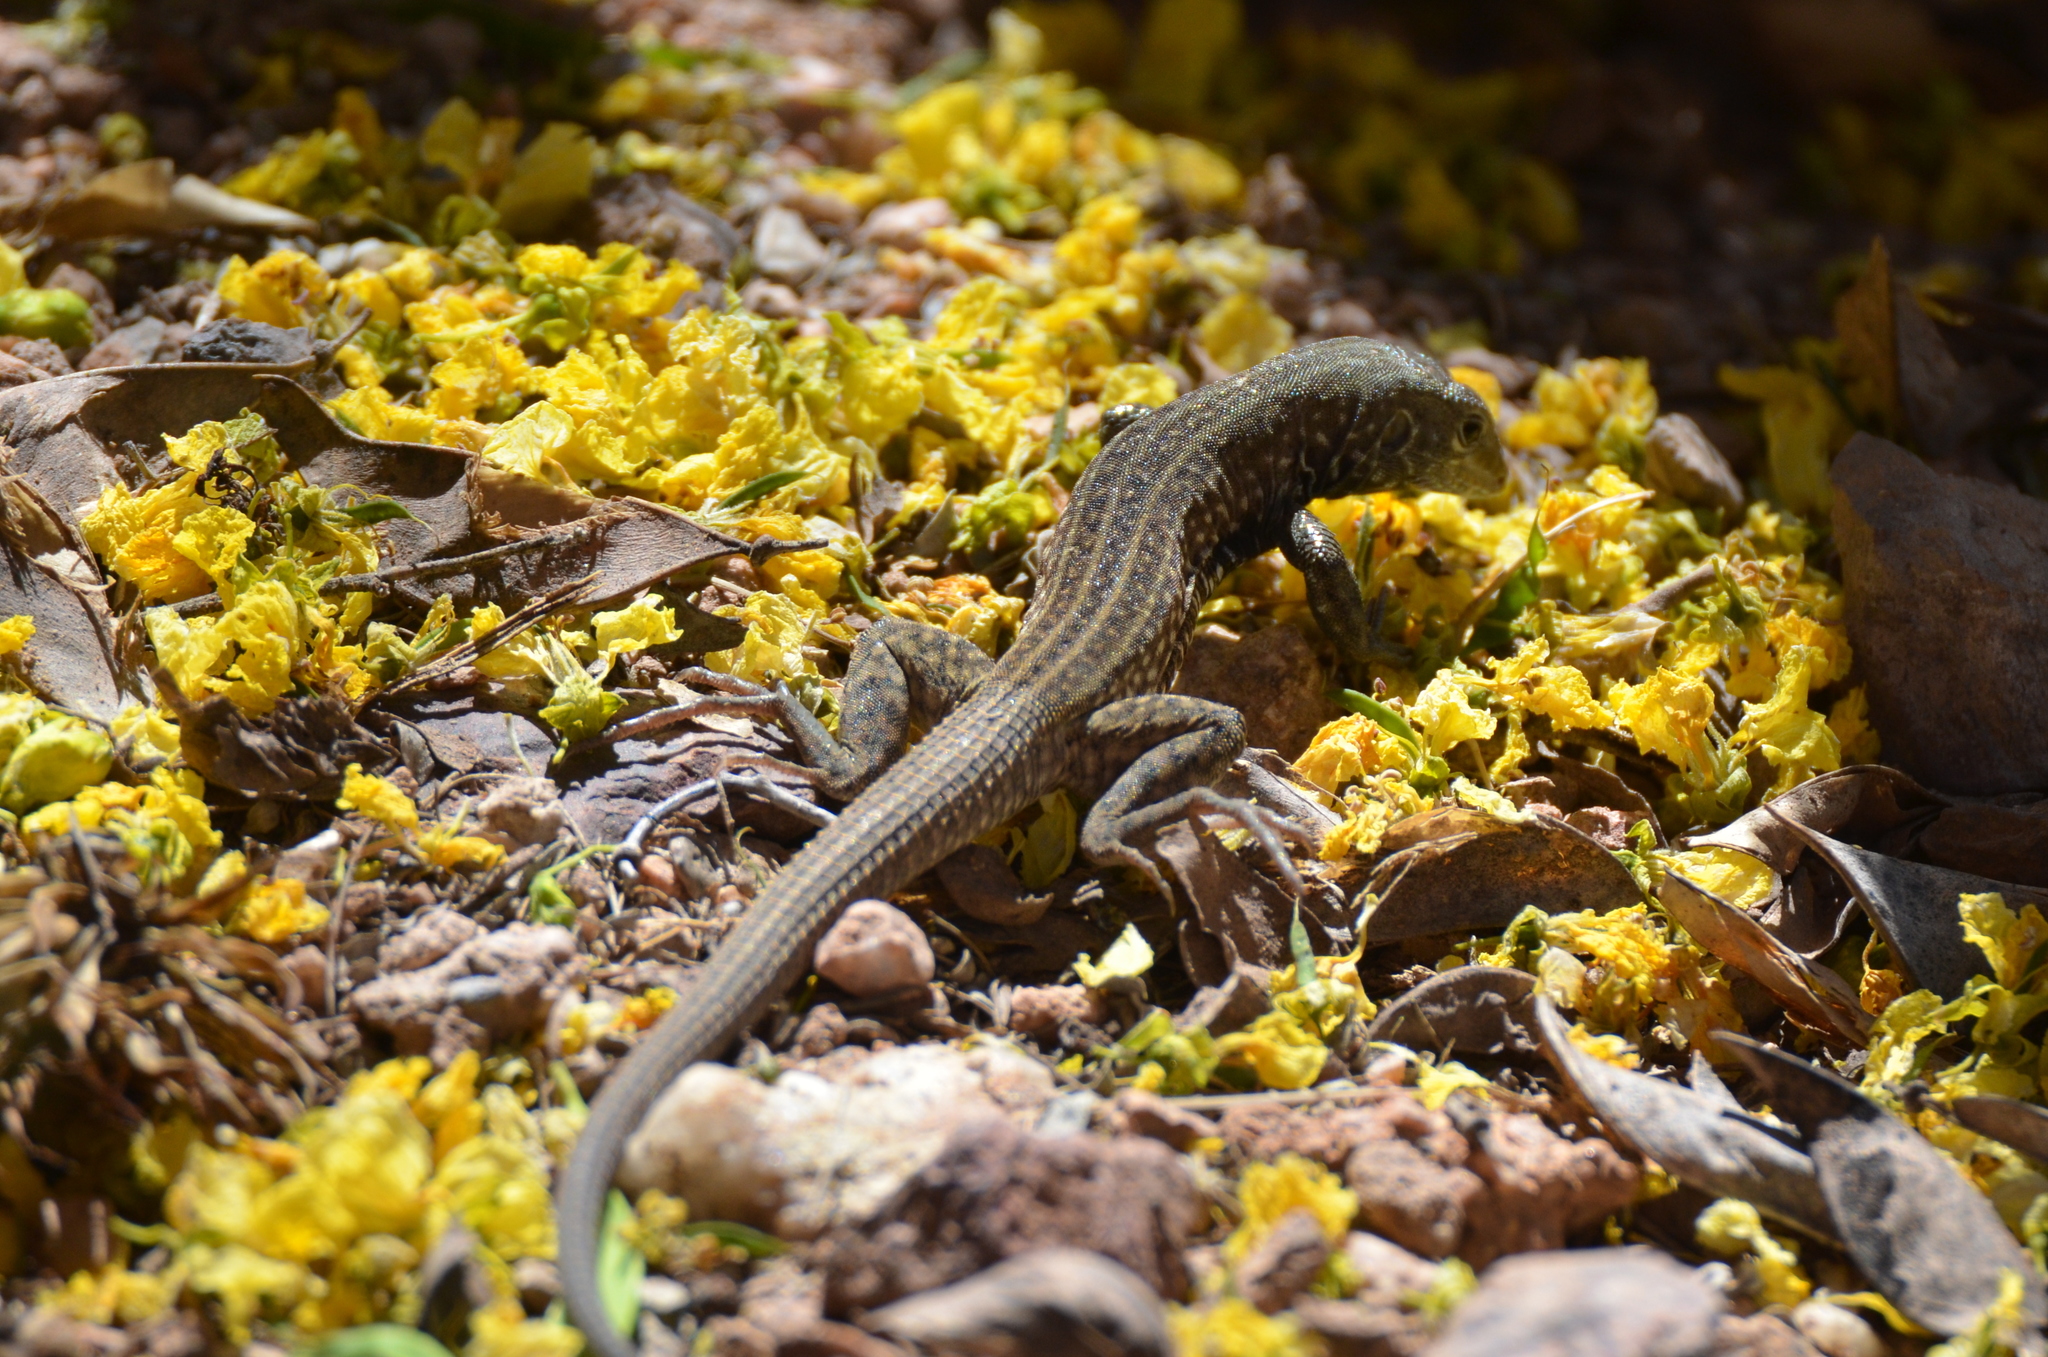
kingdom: Animalia
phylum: Chordata
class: Squamata
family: Teiidae
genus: Aspidoscelis
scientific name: Aspidoscelis tigris
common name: Tiger whiptail
